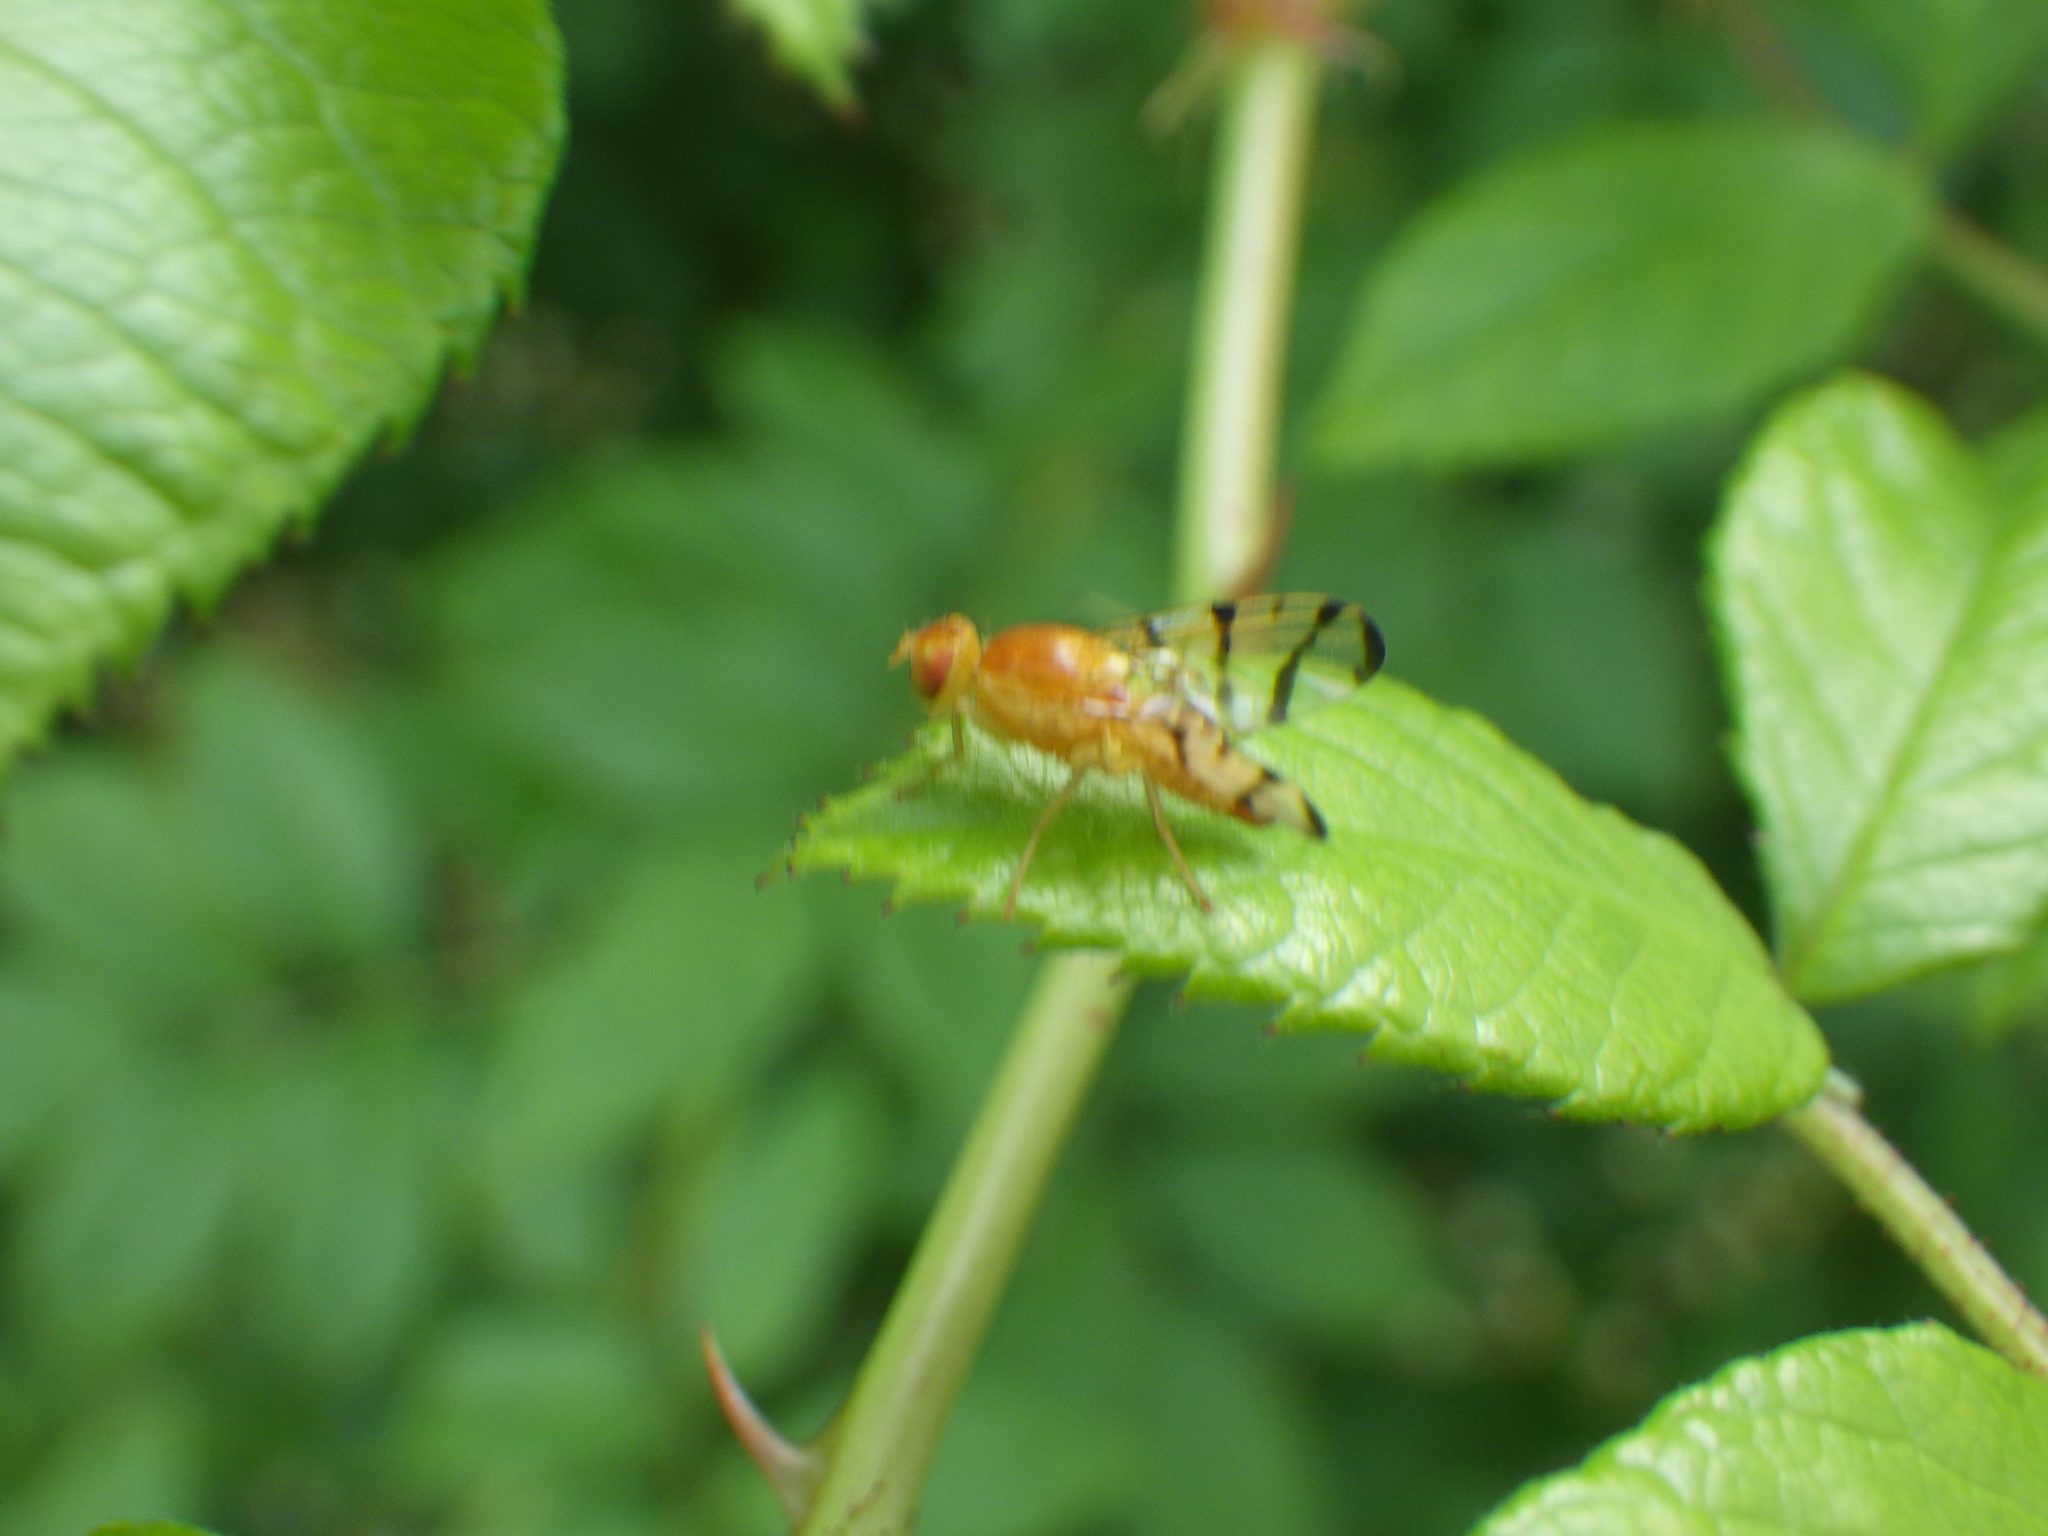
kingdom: Animalia
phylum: Arthropoda
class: Insecta
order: Diptera
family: Tephritidae
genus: Rhagoletis
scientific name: Rhagoletis basiola
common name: Rose hip fly
